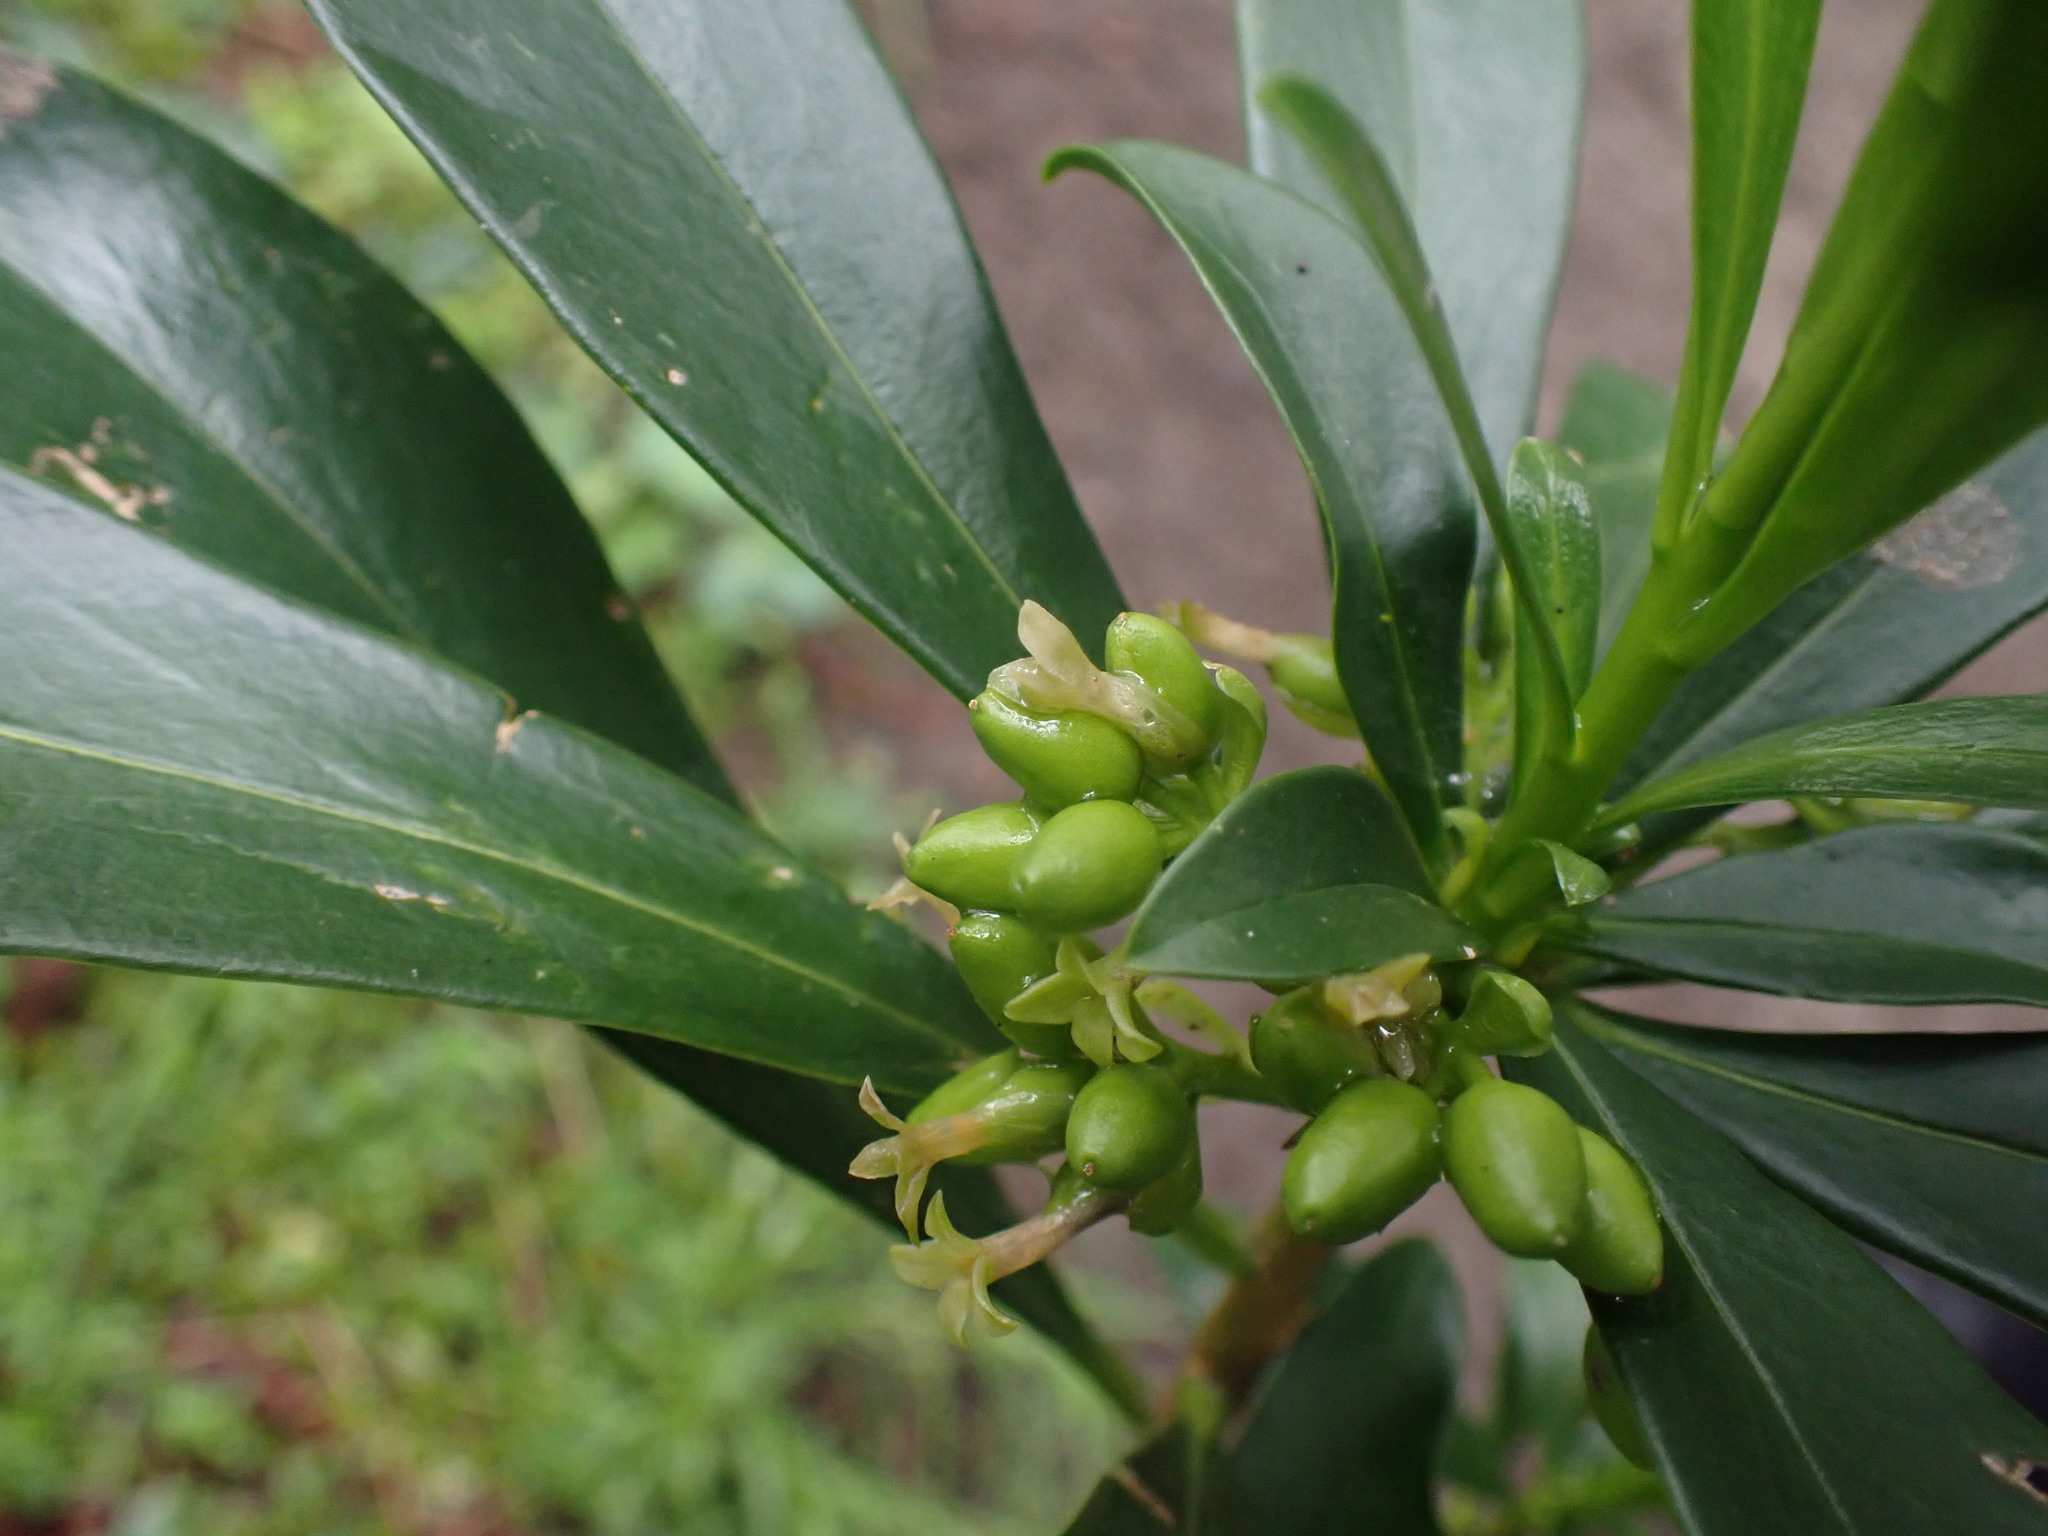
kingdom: Plantae
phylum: Tracheophyta
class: Magnoliopsida
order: Malvales
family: Thymelaeaceae
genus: Daphne
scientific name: Daphne laureola
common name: Spurge-laurel
